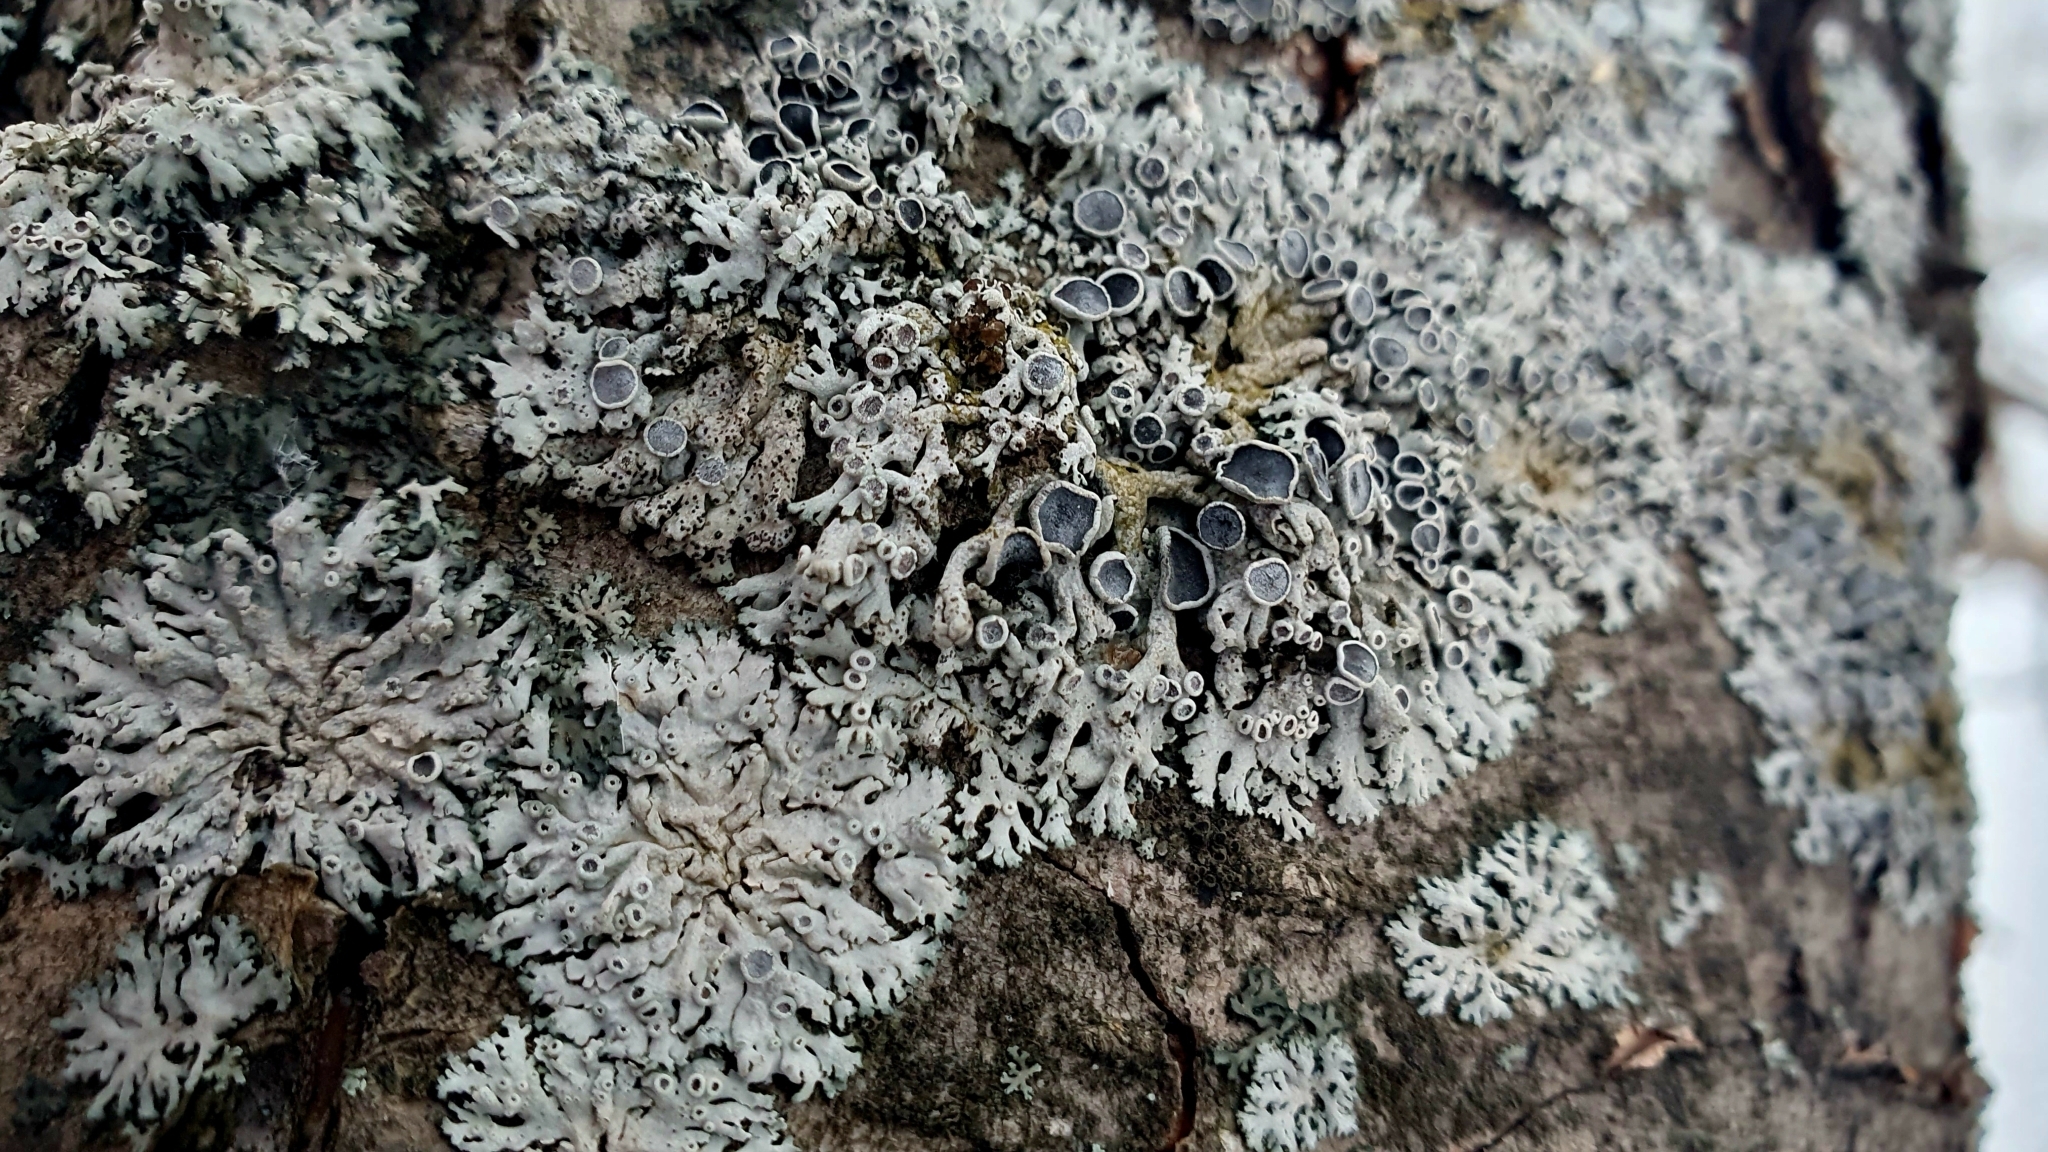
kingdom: Fungi
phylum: Ascomycota
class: Lecanoromycetes
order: Caliciales
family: Physciaceae
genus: Physcia
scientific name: Physcia stellaris
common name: Star rosette lichen
